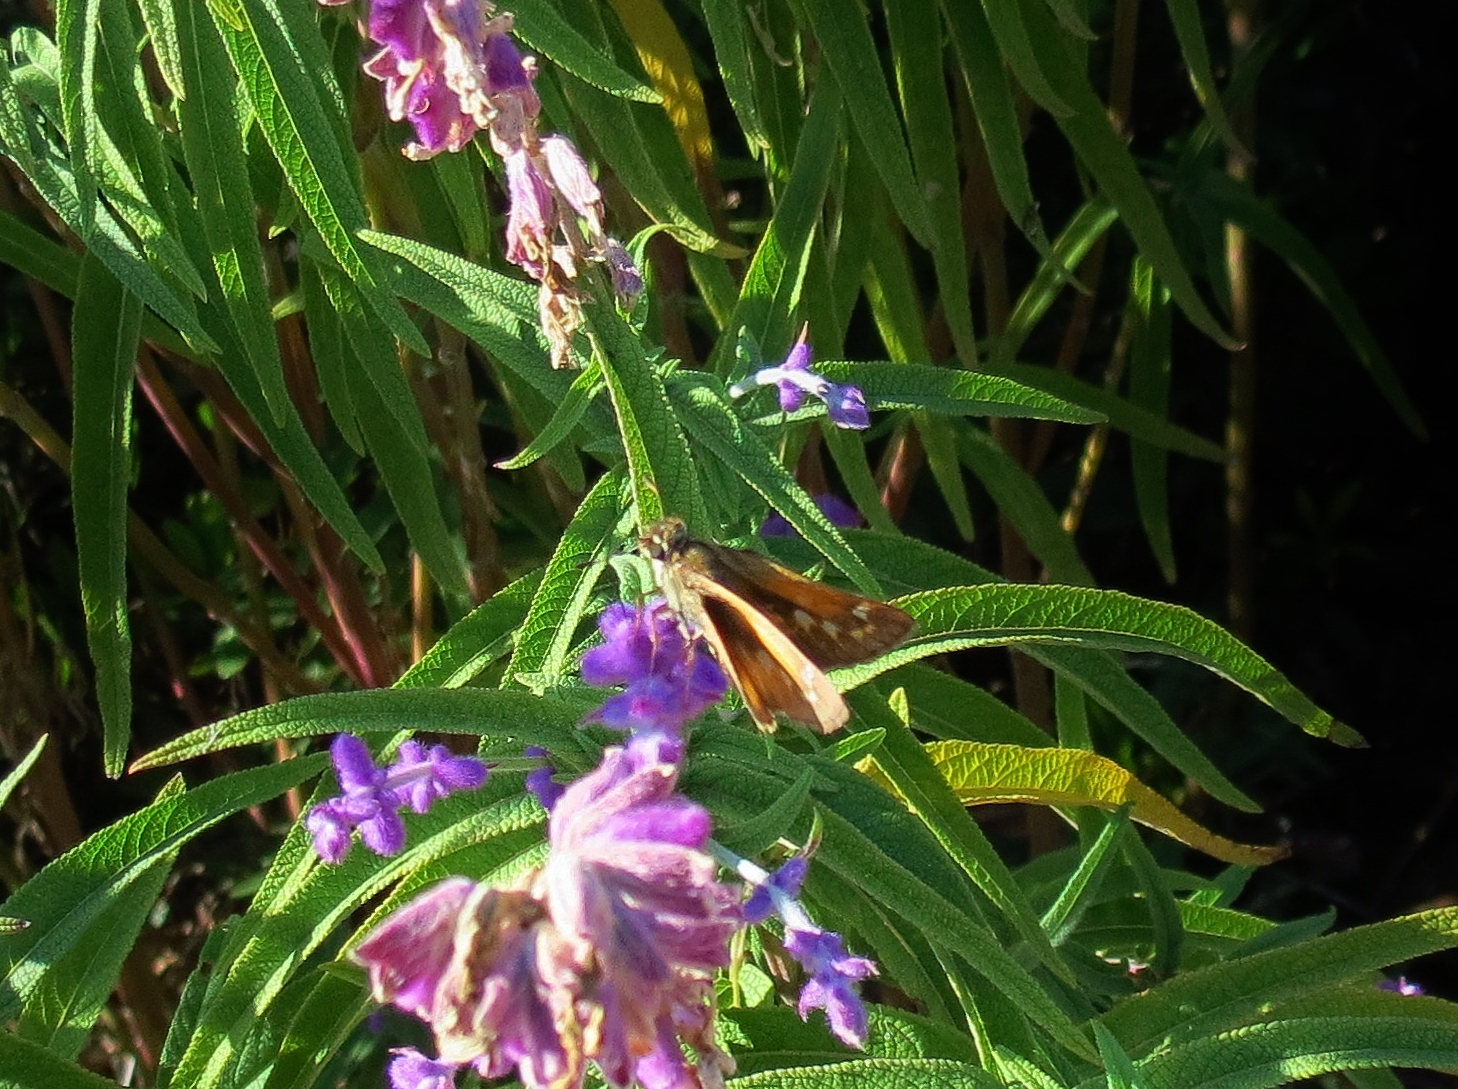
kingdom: Animalia
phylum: Arthropoda
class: Insecta
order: Lepidoptera
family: Hesperiidae
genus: Atalopedes
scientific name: Atalopedes
